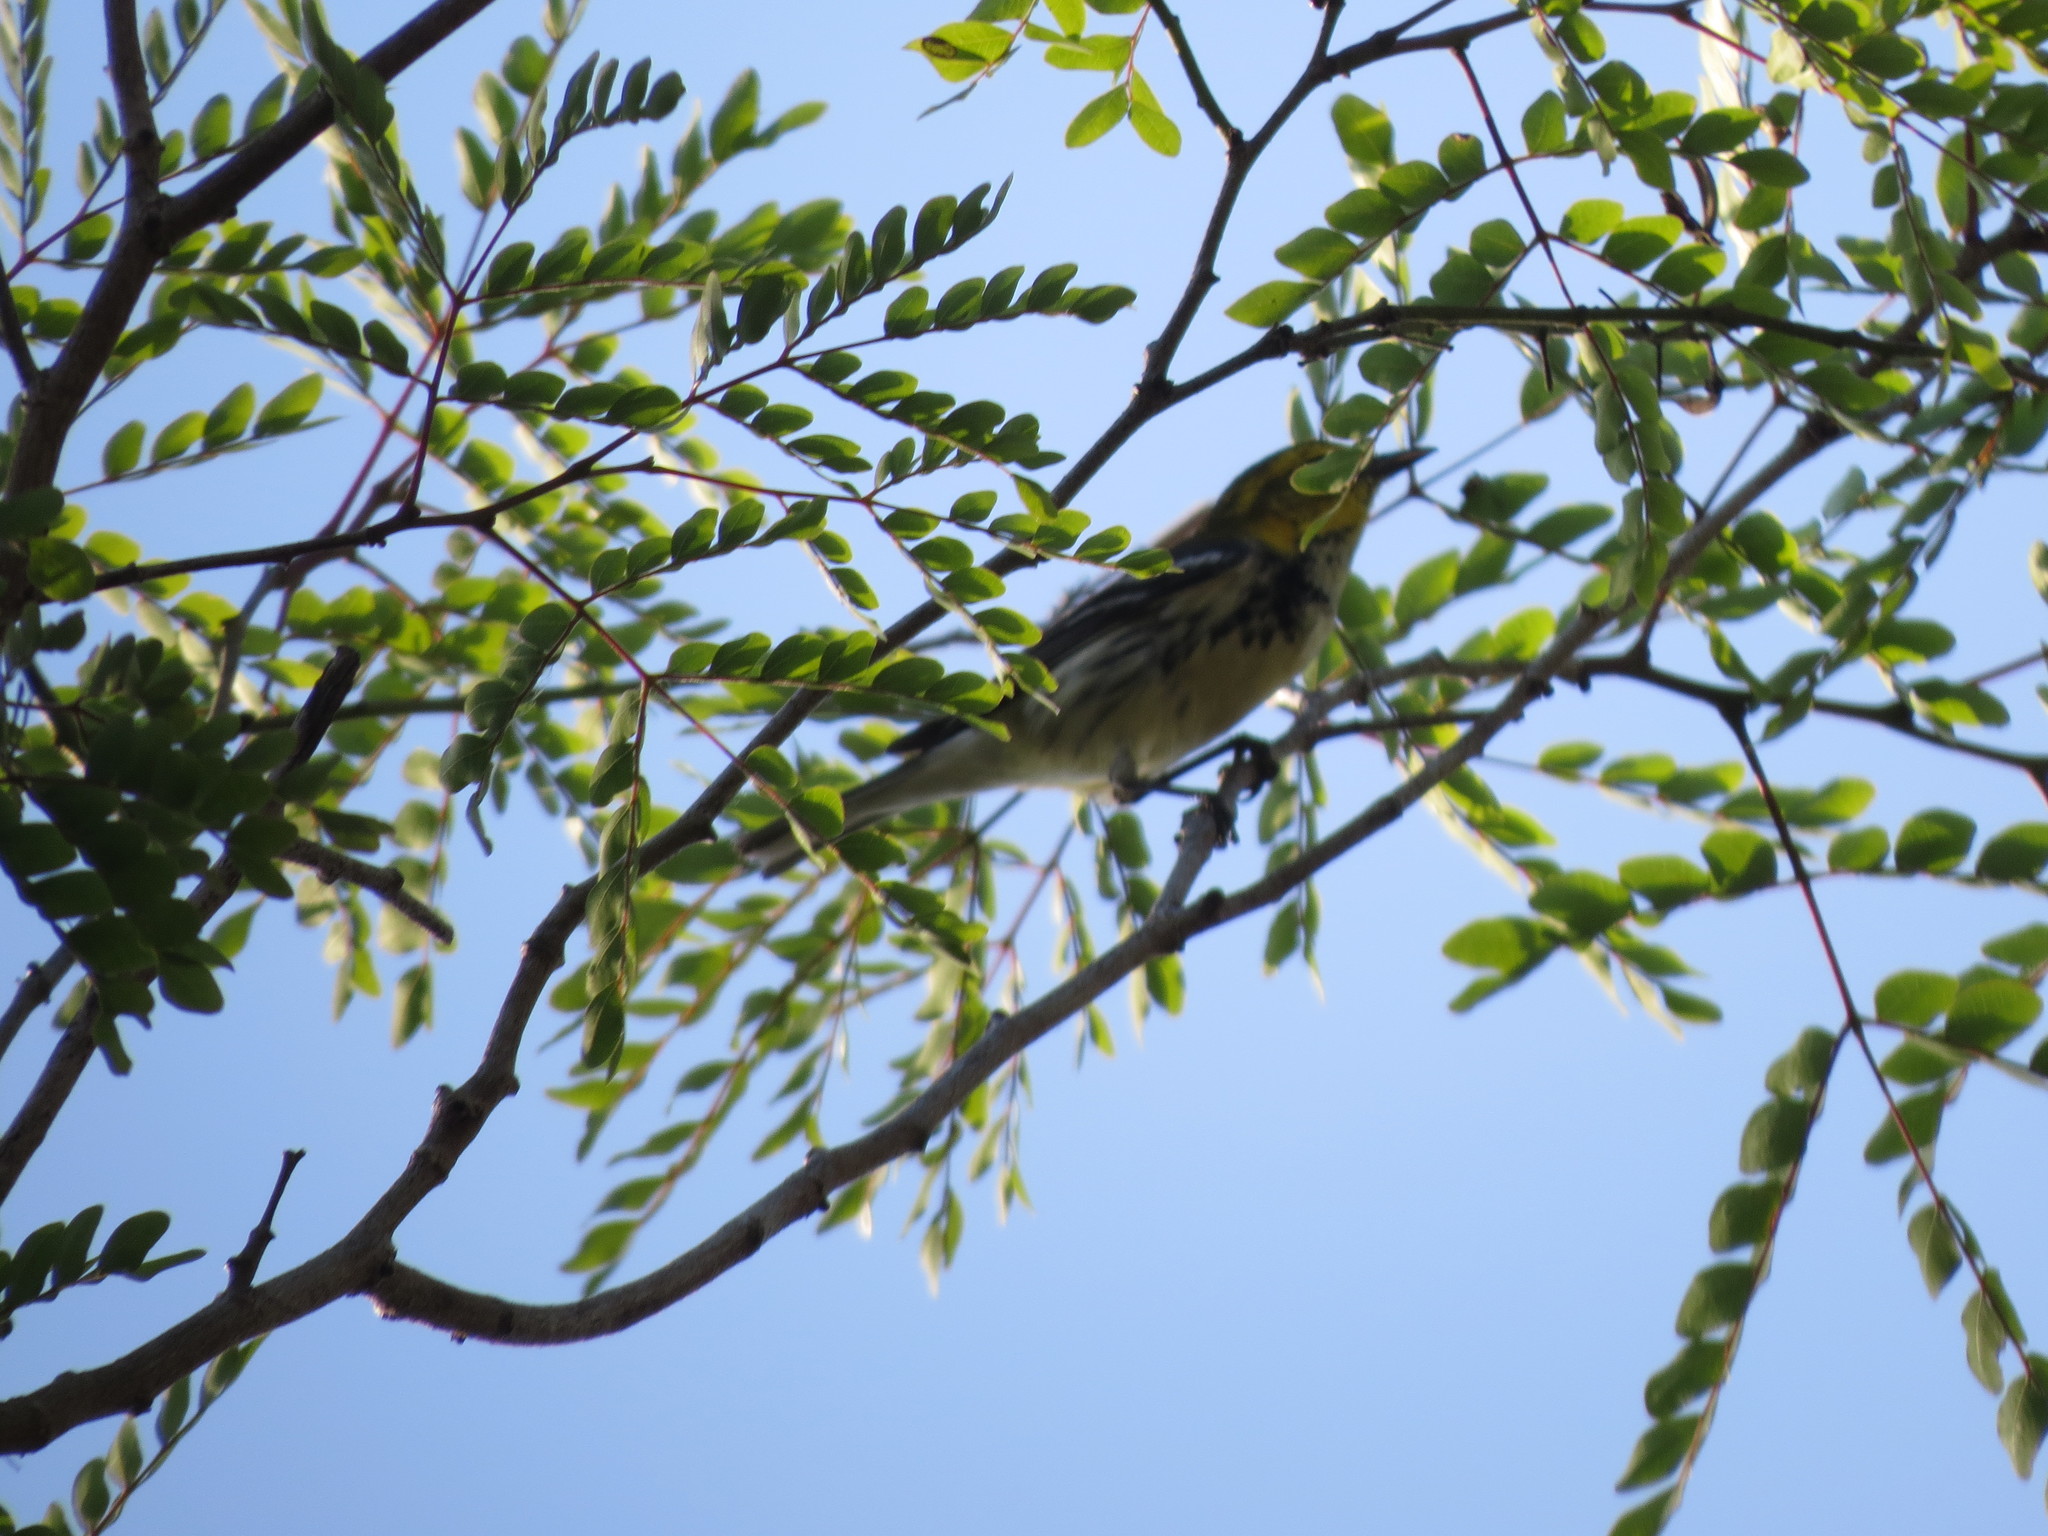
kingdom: Animalia
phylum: Chordata
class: Aves
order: Passeriformes
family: Parulidae
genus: Setophaga
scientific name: Setophaga virens
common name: Black-throated green warbler
